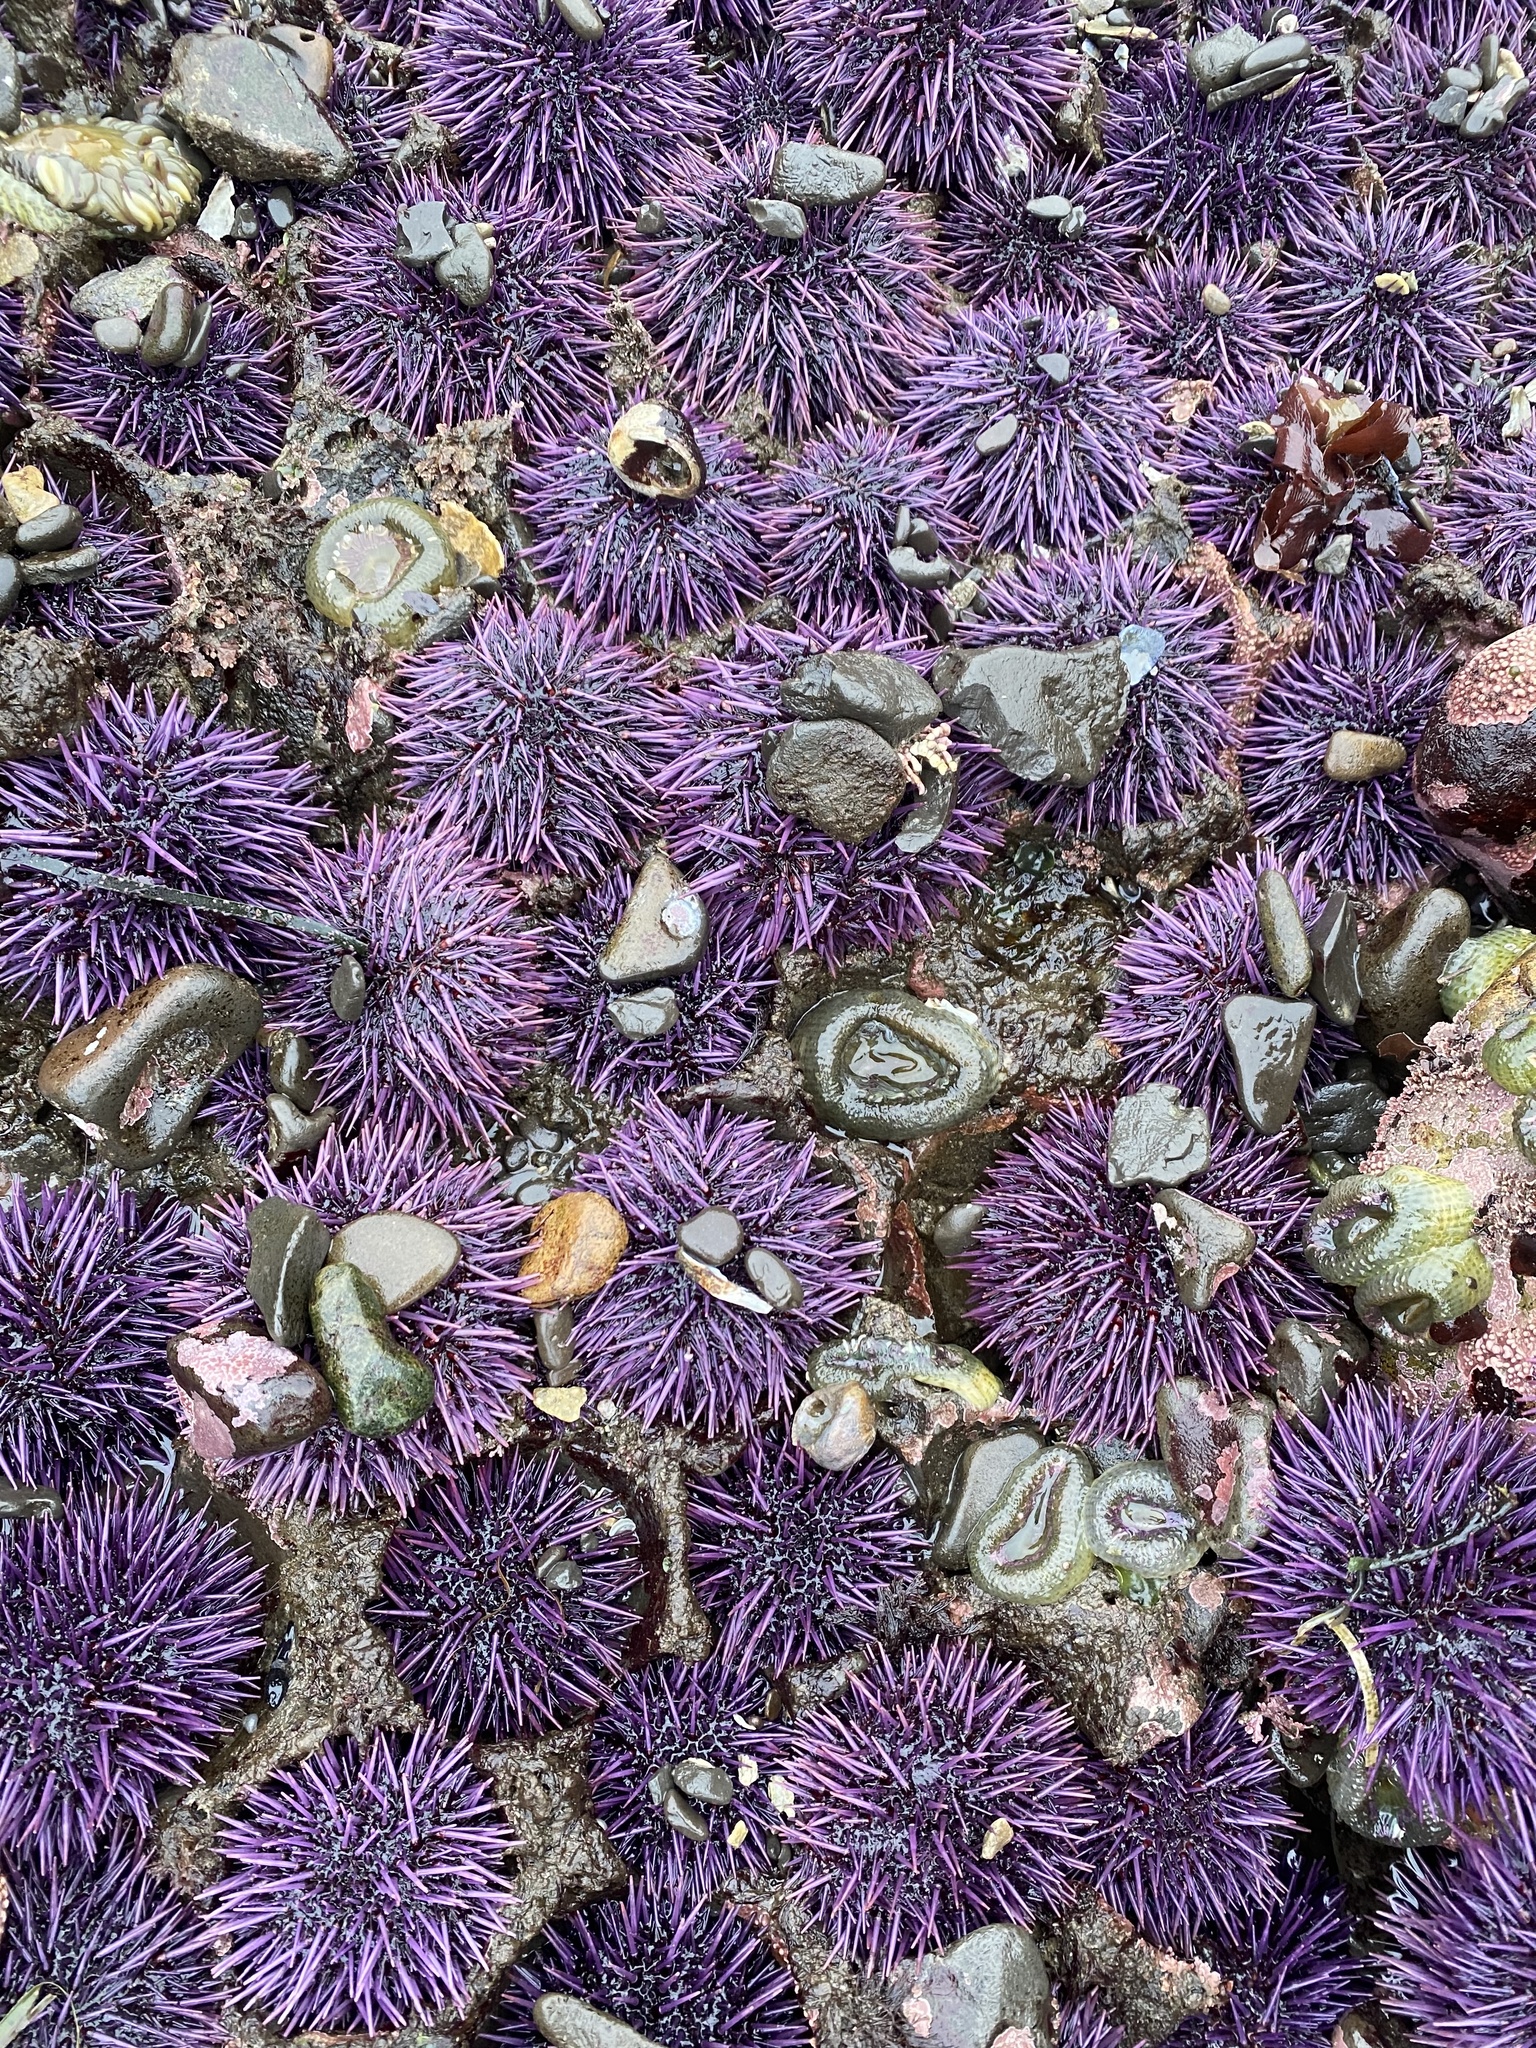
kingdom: Animalia
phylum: Echinodermata
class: Echinoidea
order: Camarodonta
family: Strongylocentrotidae
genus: Strongylocentrotus
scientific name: Strongylocentrotus purpuratus
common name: Purple sea urchin
